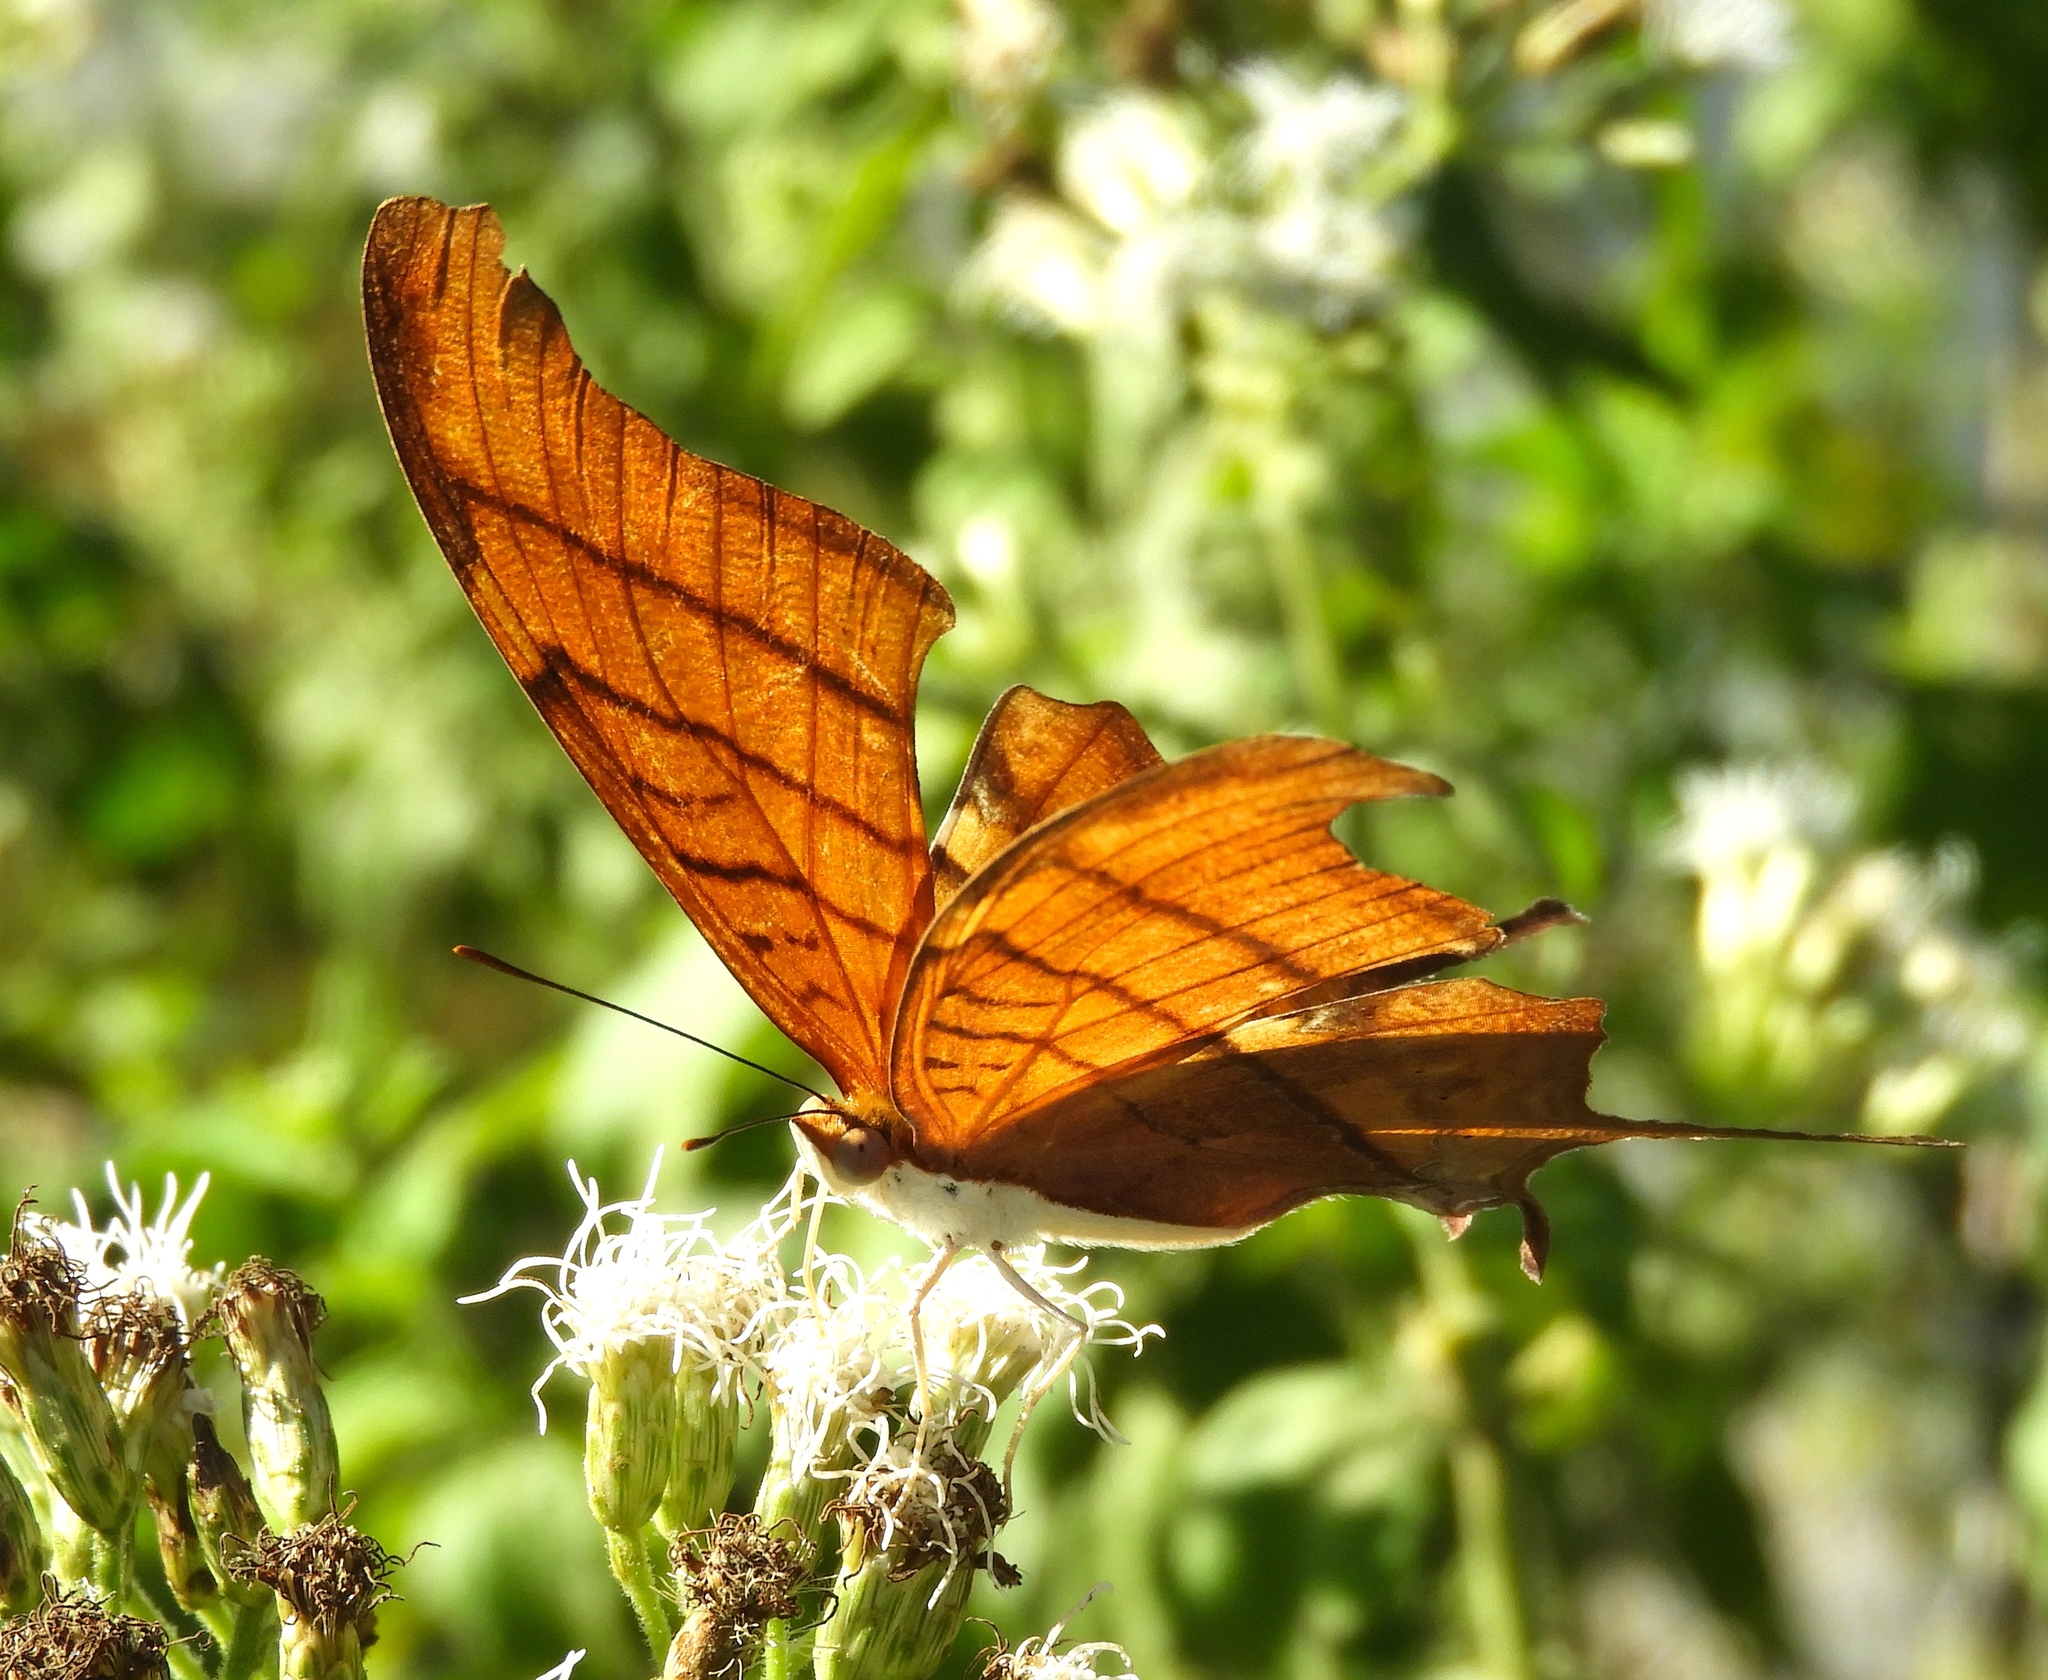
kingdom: Animalia
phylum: Arthropoda
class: Insecta
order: Lepidoptera
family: Nymphalidae
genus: Marpesia
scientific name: Marpesia petreus
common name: Red dagger wing
